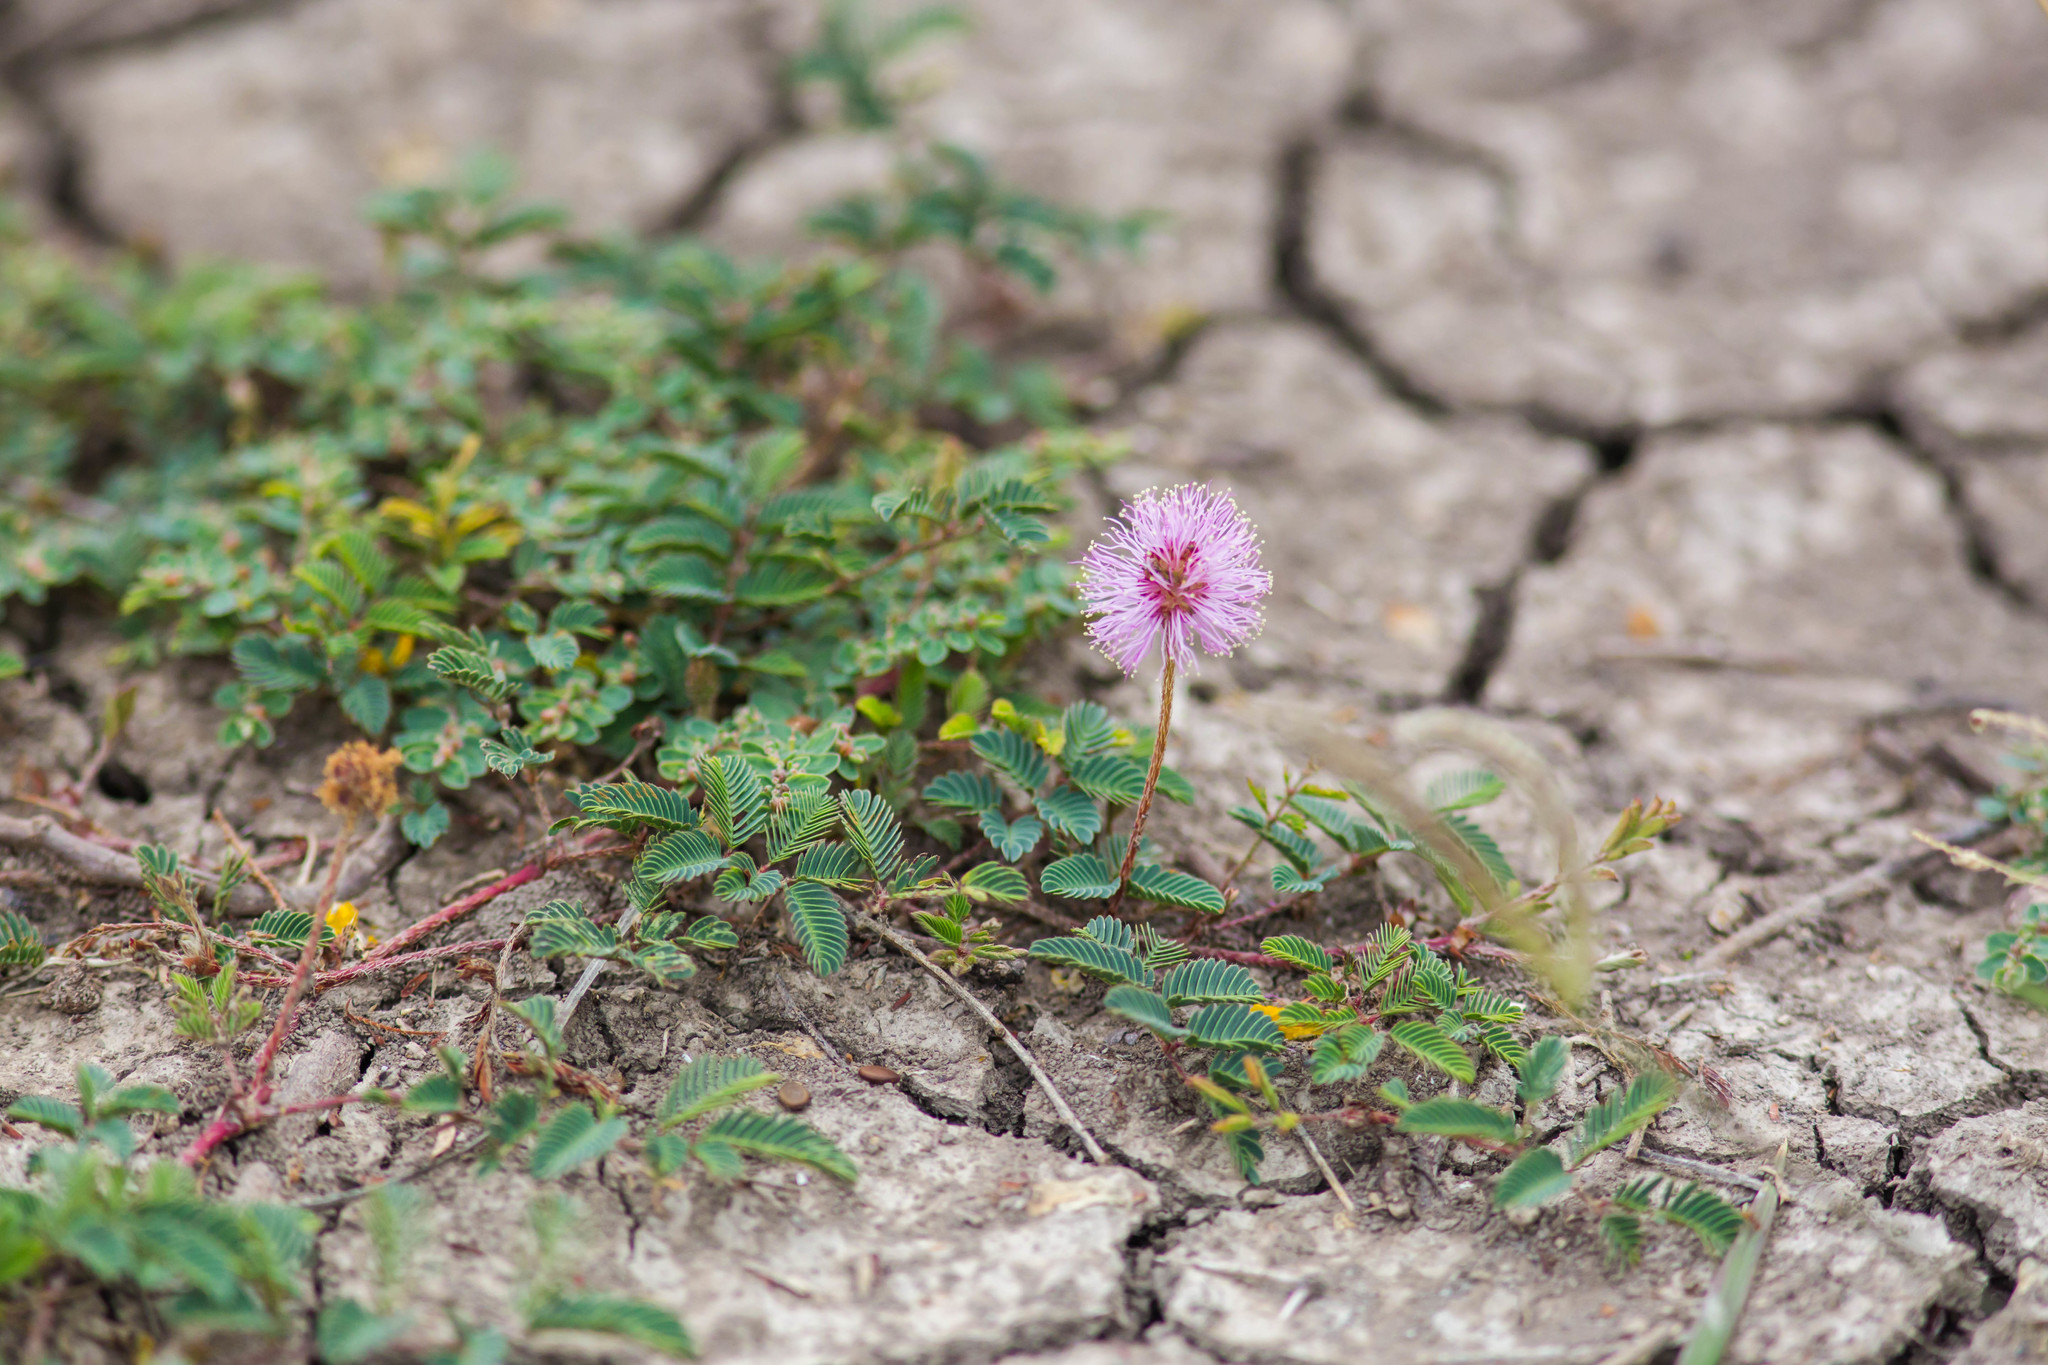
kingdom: Plantae
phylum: Tracheophyta
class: Magnoliopsida
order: Fabales
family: Fabaceae
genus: Mimosa
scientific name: Mimosa strigillosa
